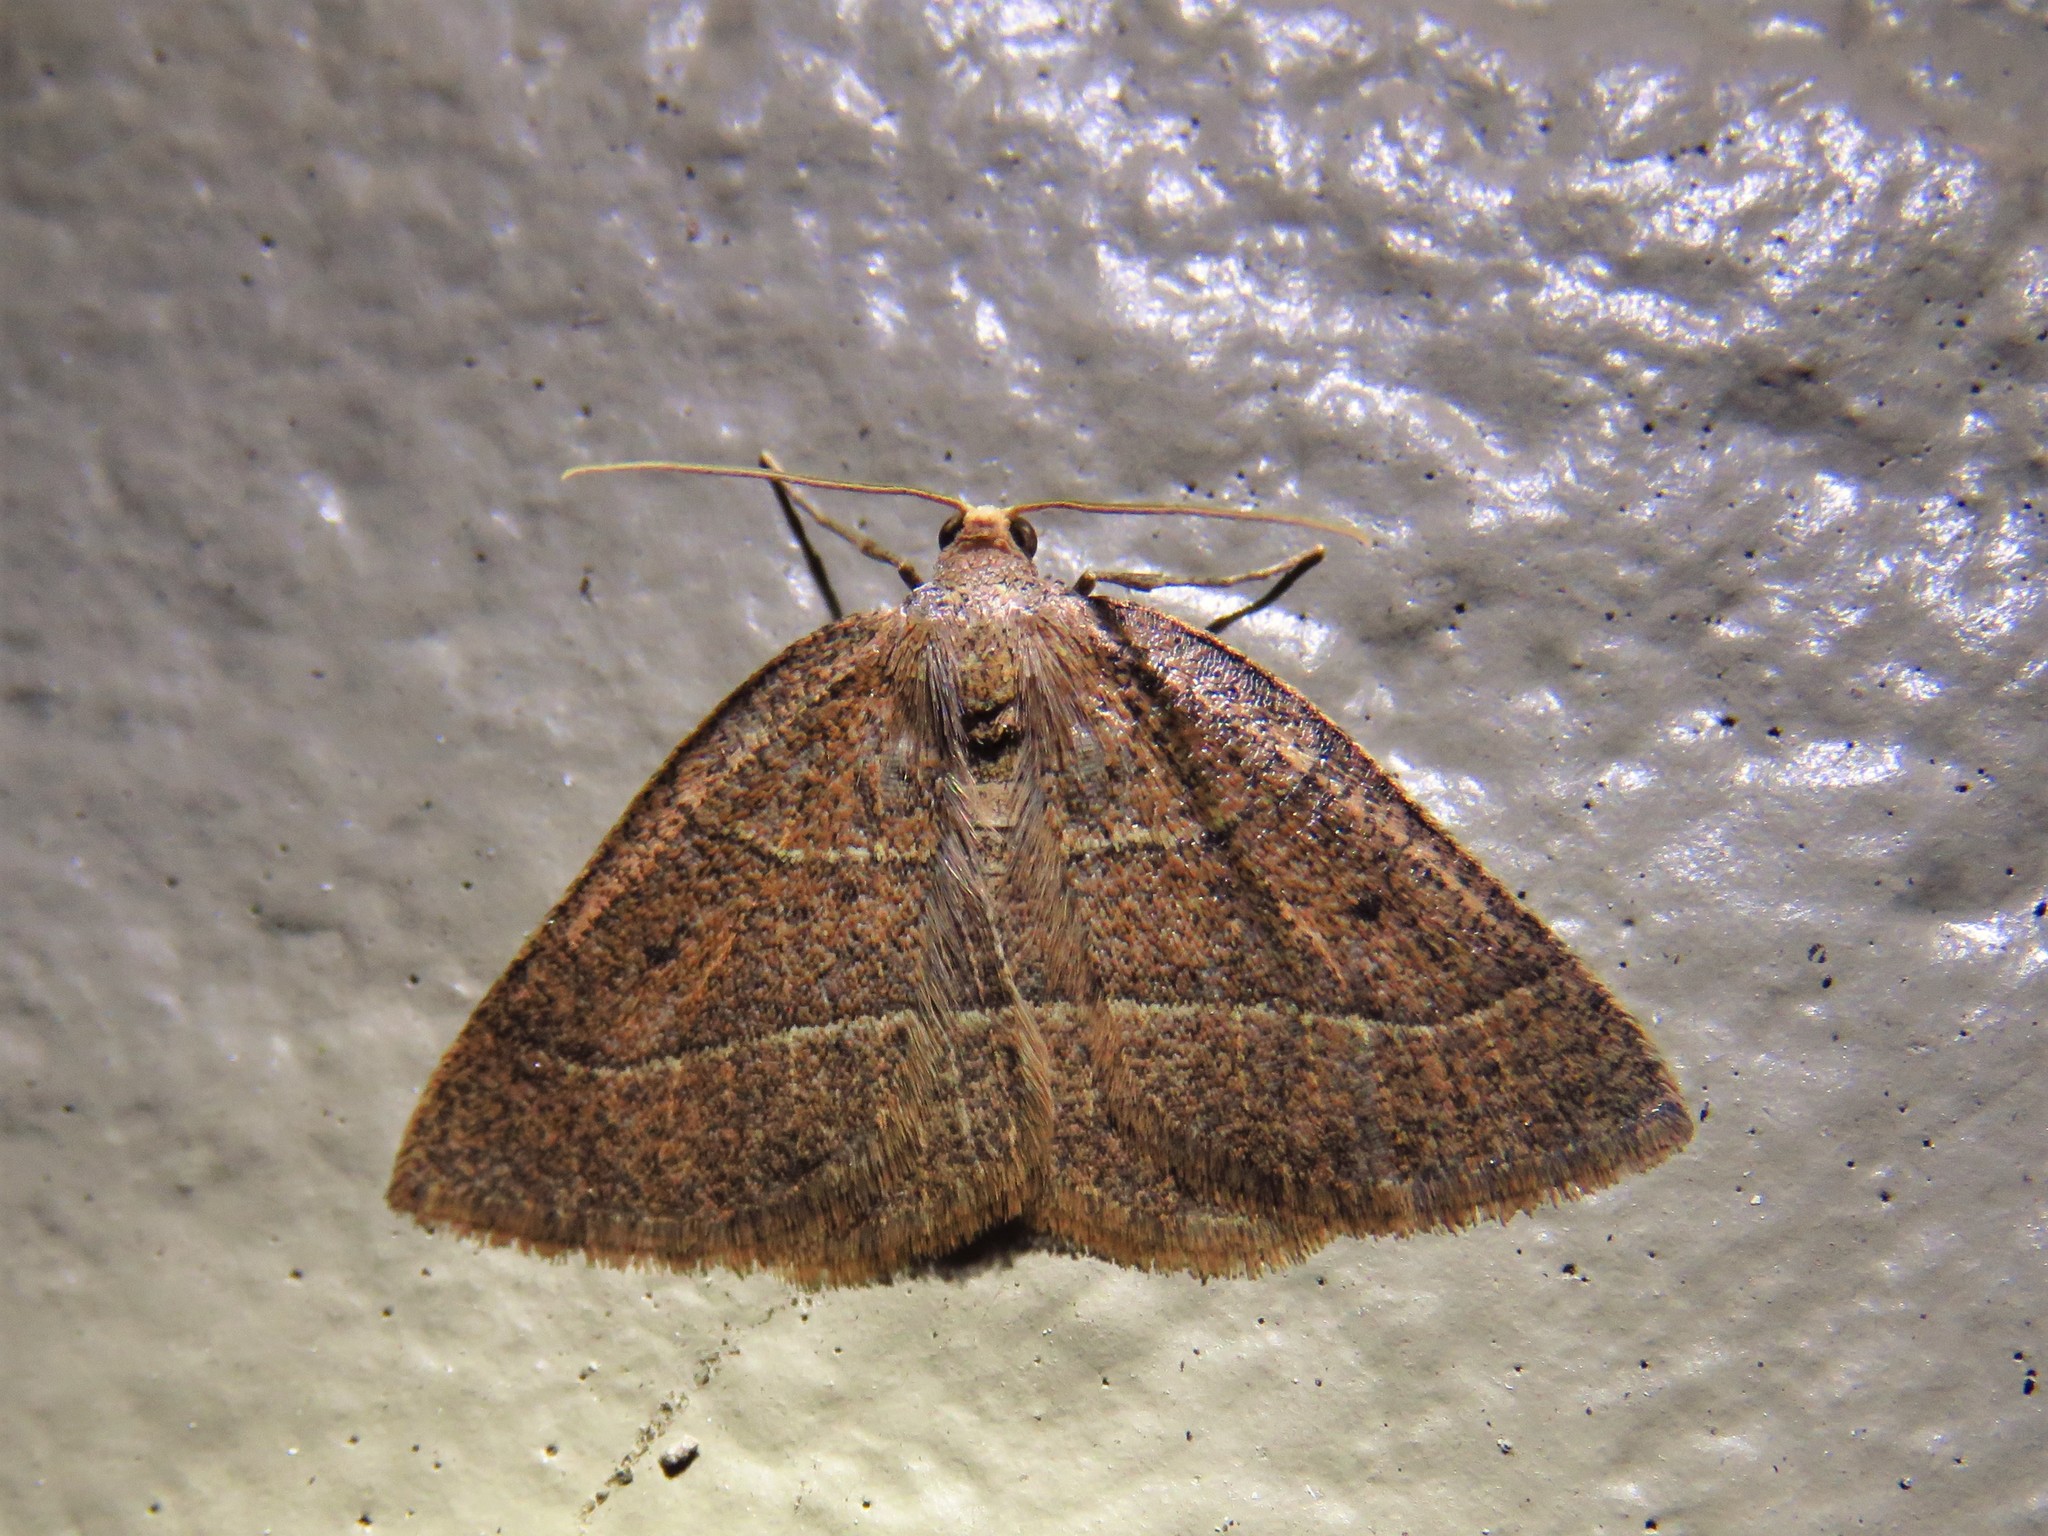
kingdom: Animalia
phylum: Arthropoda
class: Insecta
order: Lepidoptera
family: Geometridae
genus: Episemasia
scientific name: Episemasia cervinaria
